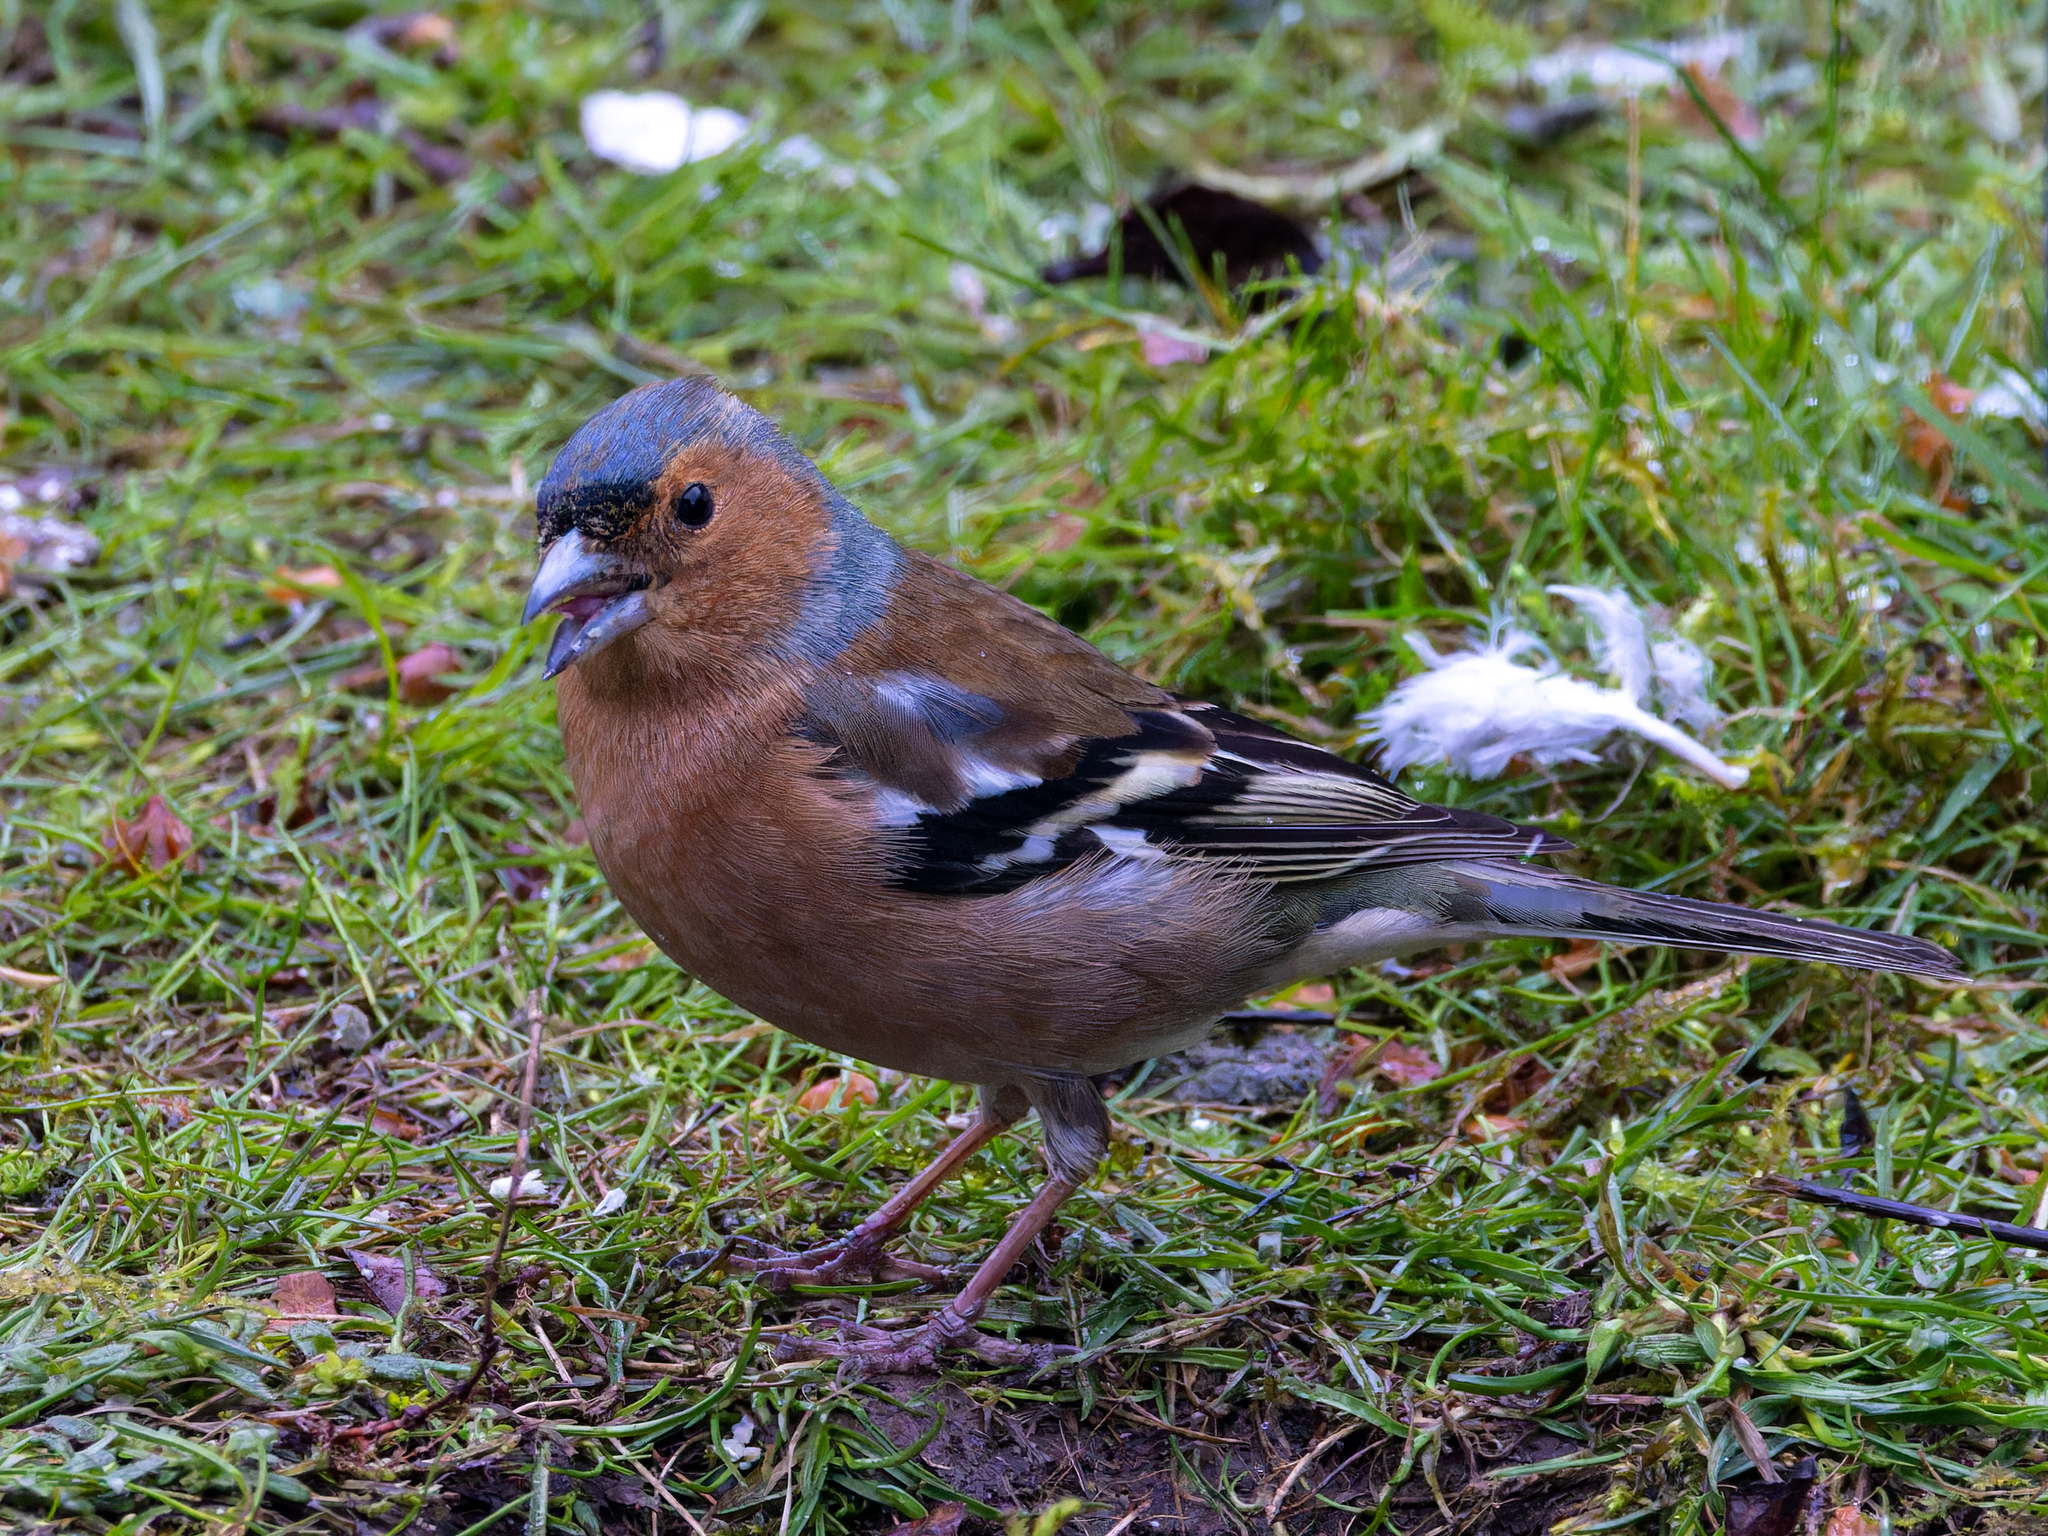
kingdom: Animalia
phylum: Chordata
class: Aves
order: Passeriformes
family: Fringillidae
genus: Fringilla
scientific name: Fringilla coelebs
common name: Common chaffinch
